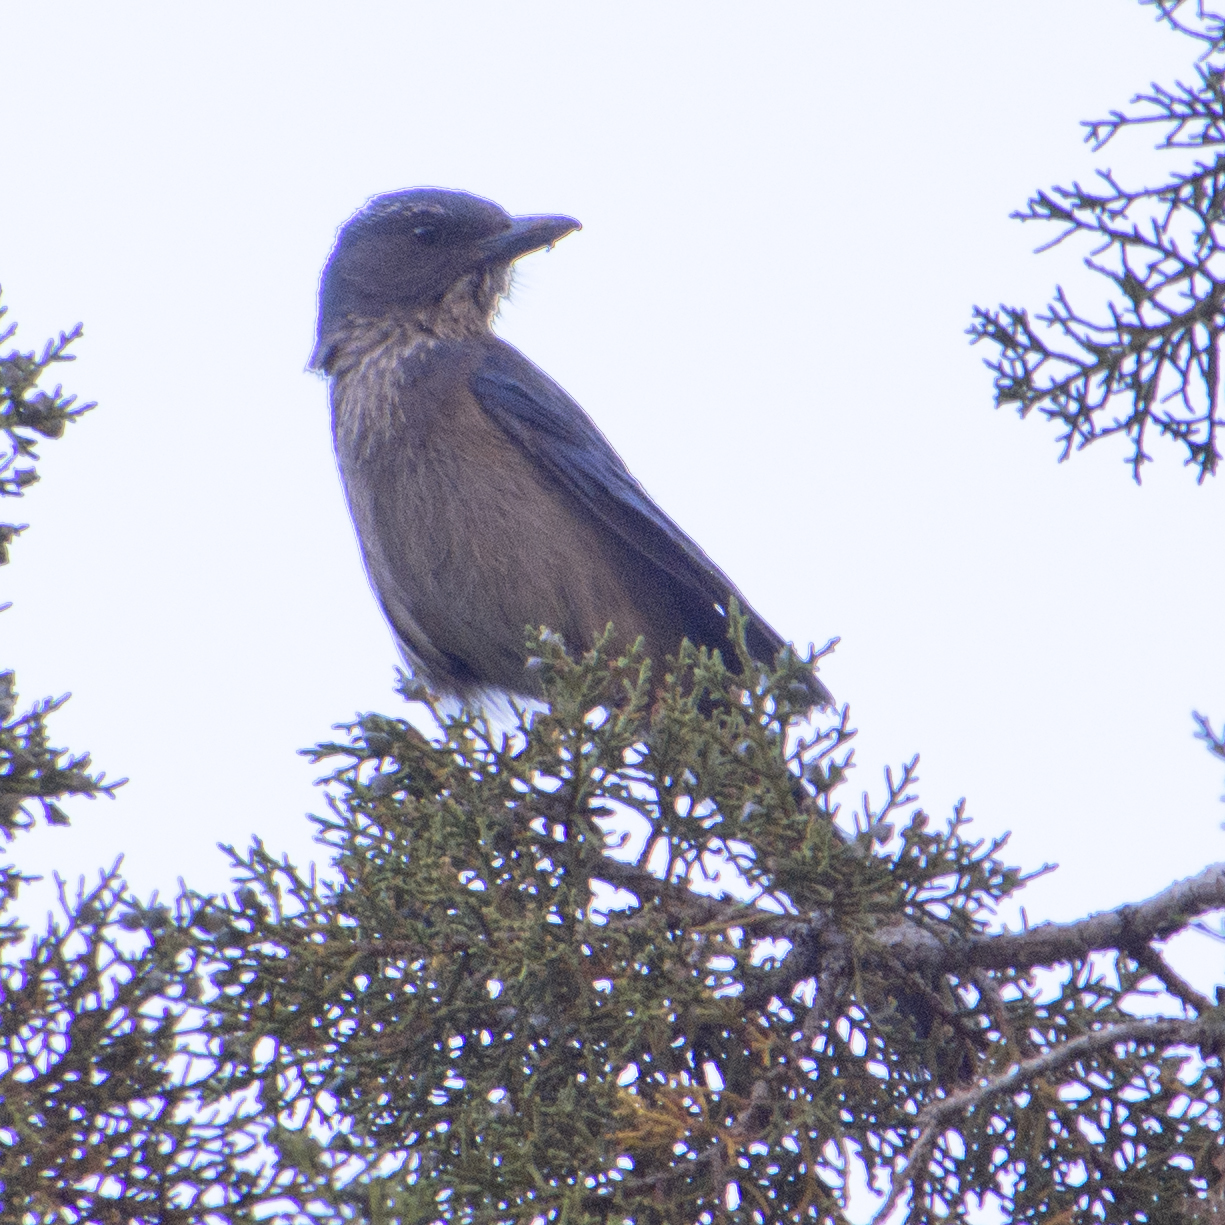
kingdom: Animalia
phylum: Chordata
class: Aves
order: Passeriformes
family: Corvidae
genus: Aphelocoma
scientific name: Aphelocoma woodhouseii
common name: Woodhouse's scrub-jay
